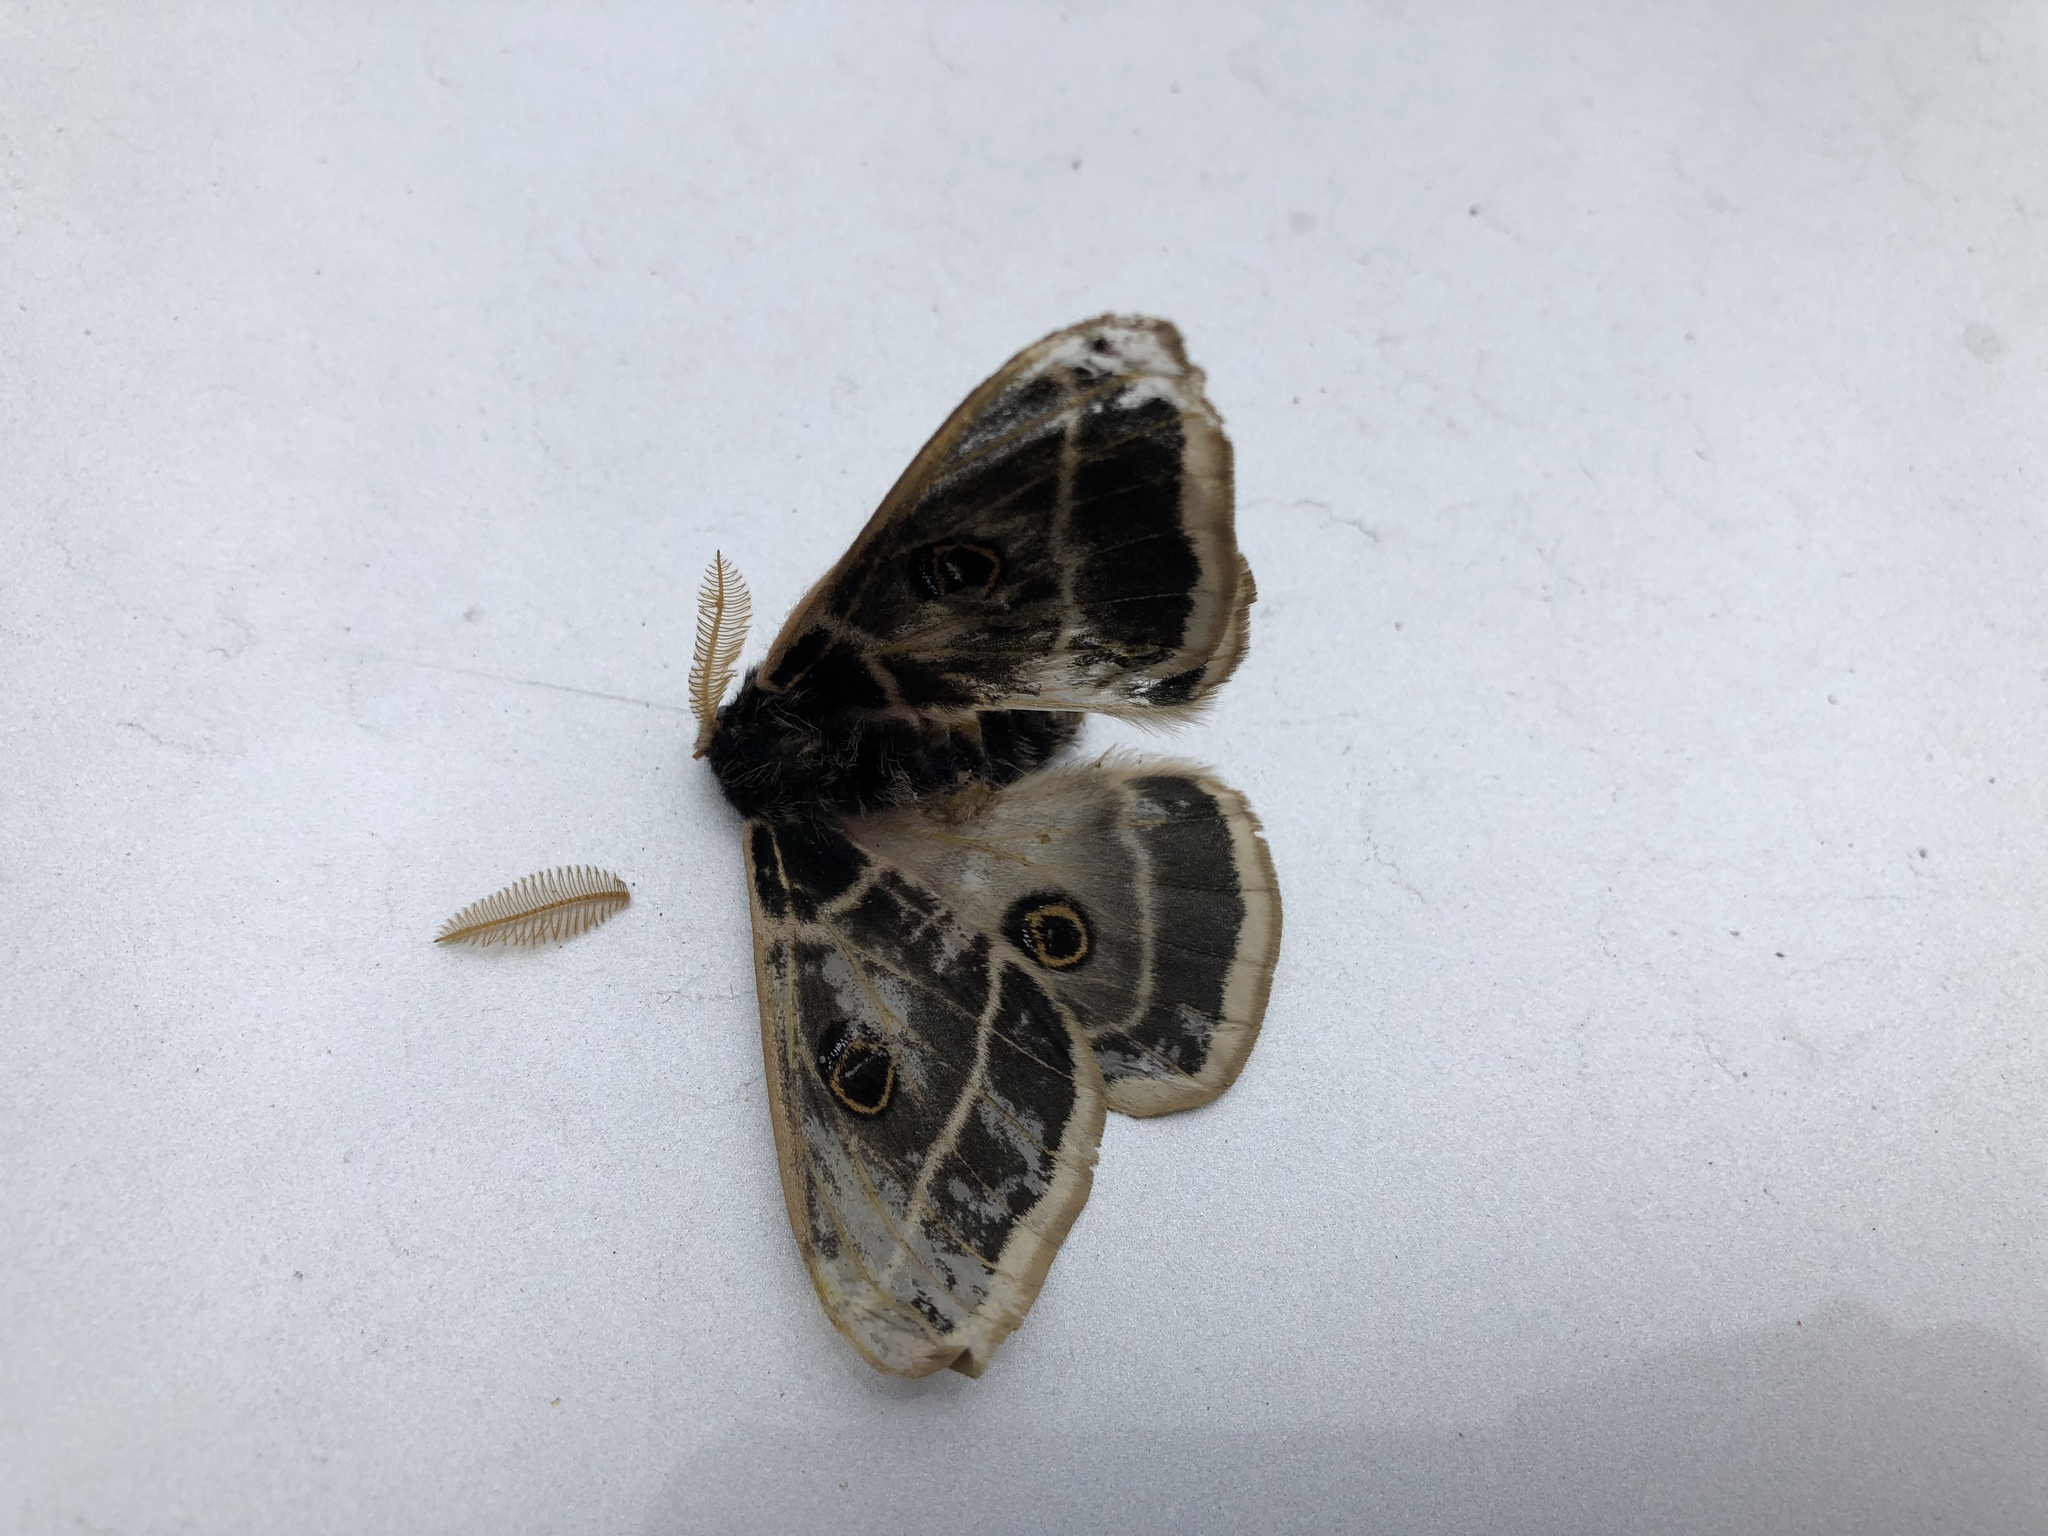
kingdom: Animalia
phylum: Arthropoda
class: Insecta
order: Lepidoptera
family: Saturniidae
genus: Agapema
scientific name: Agapema homogena
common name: Rocky mountain agapema
